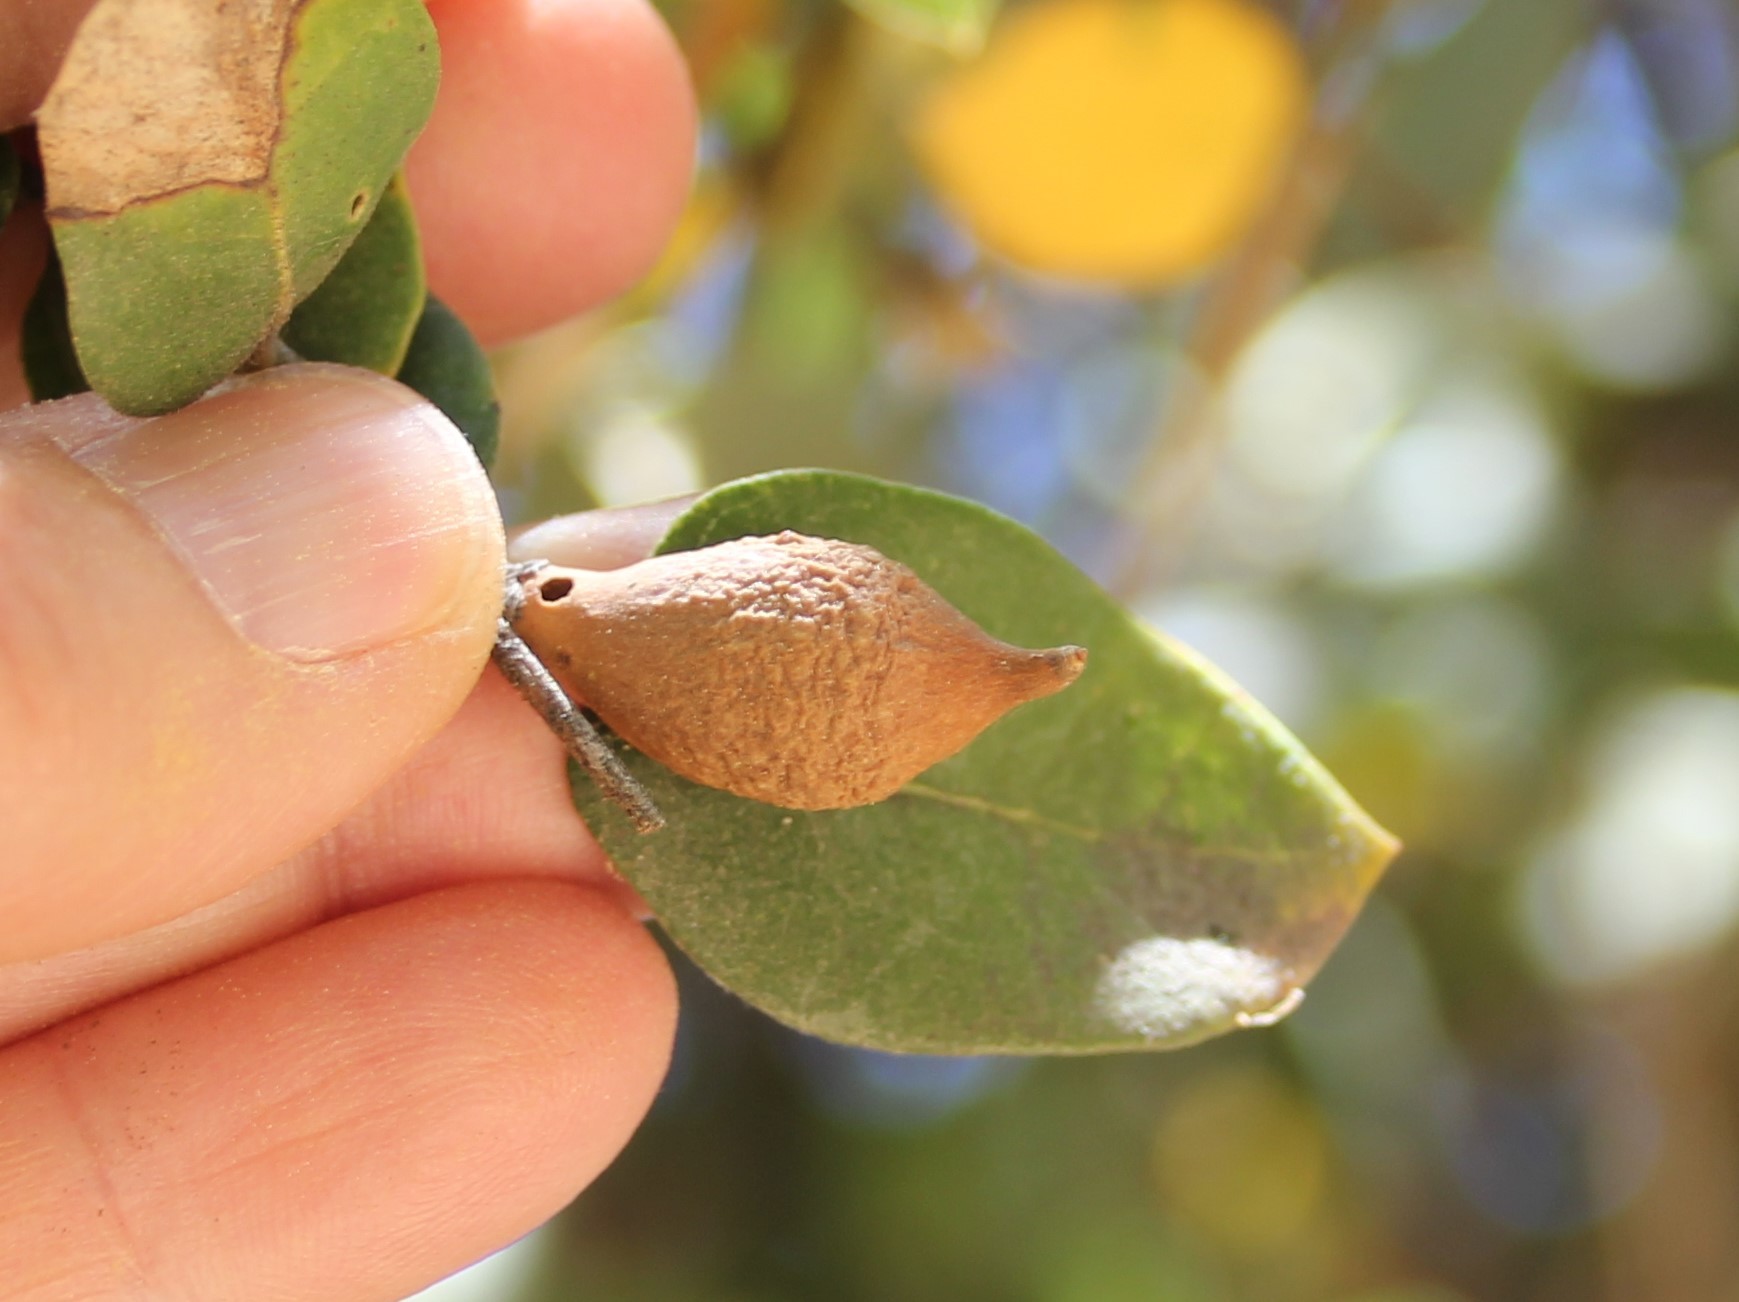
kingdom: Animalia
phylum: Arthropoda
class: Insecta
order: Hymenoptera
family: Cynipidae
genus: Heteroecus
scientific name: Heteroecus pacificus
